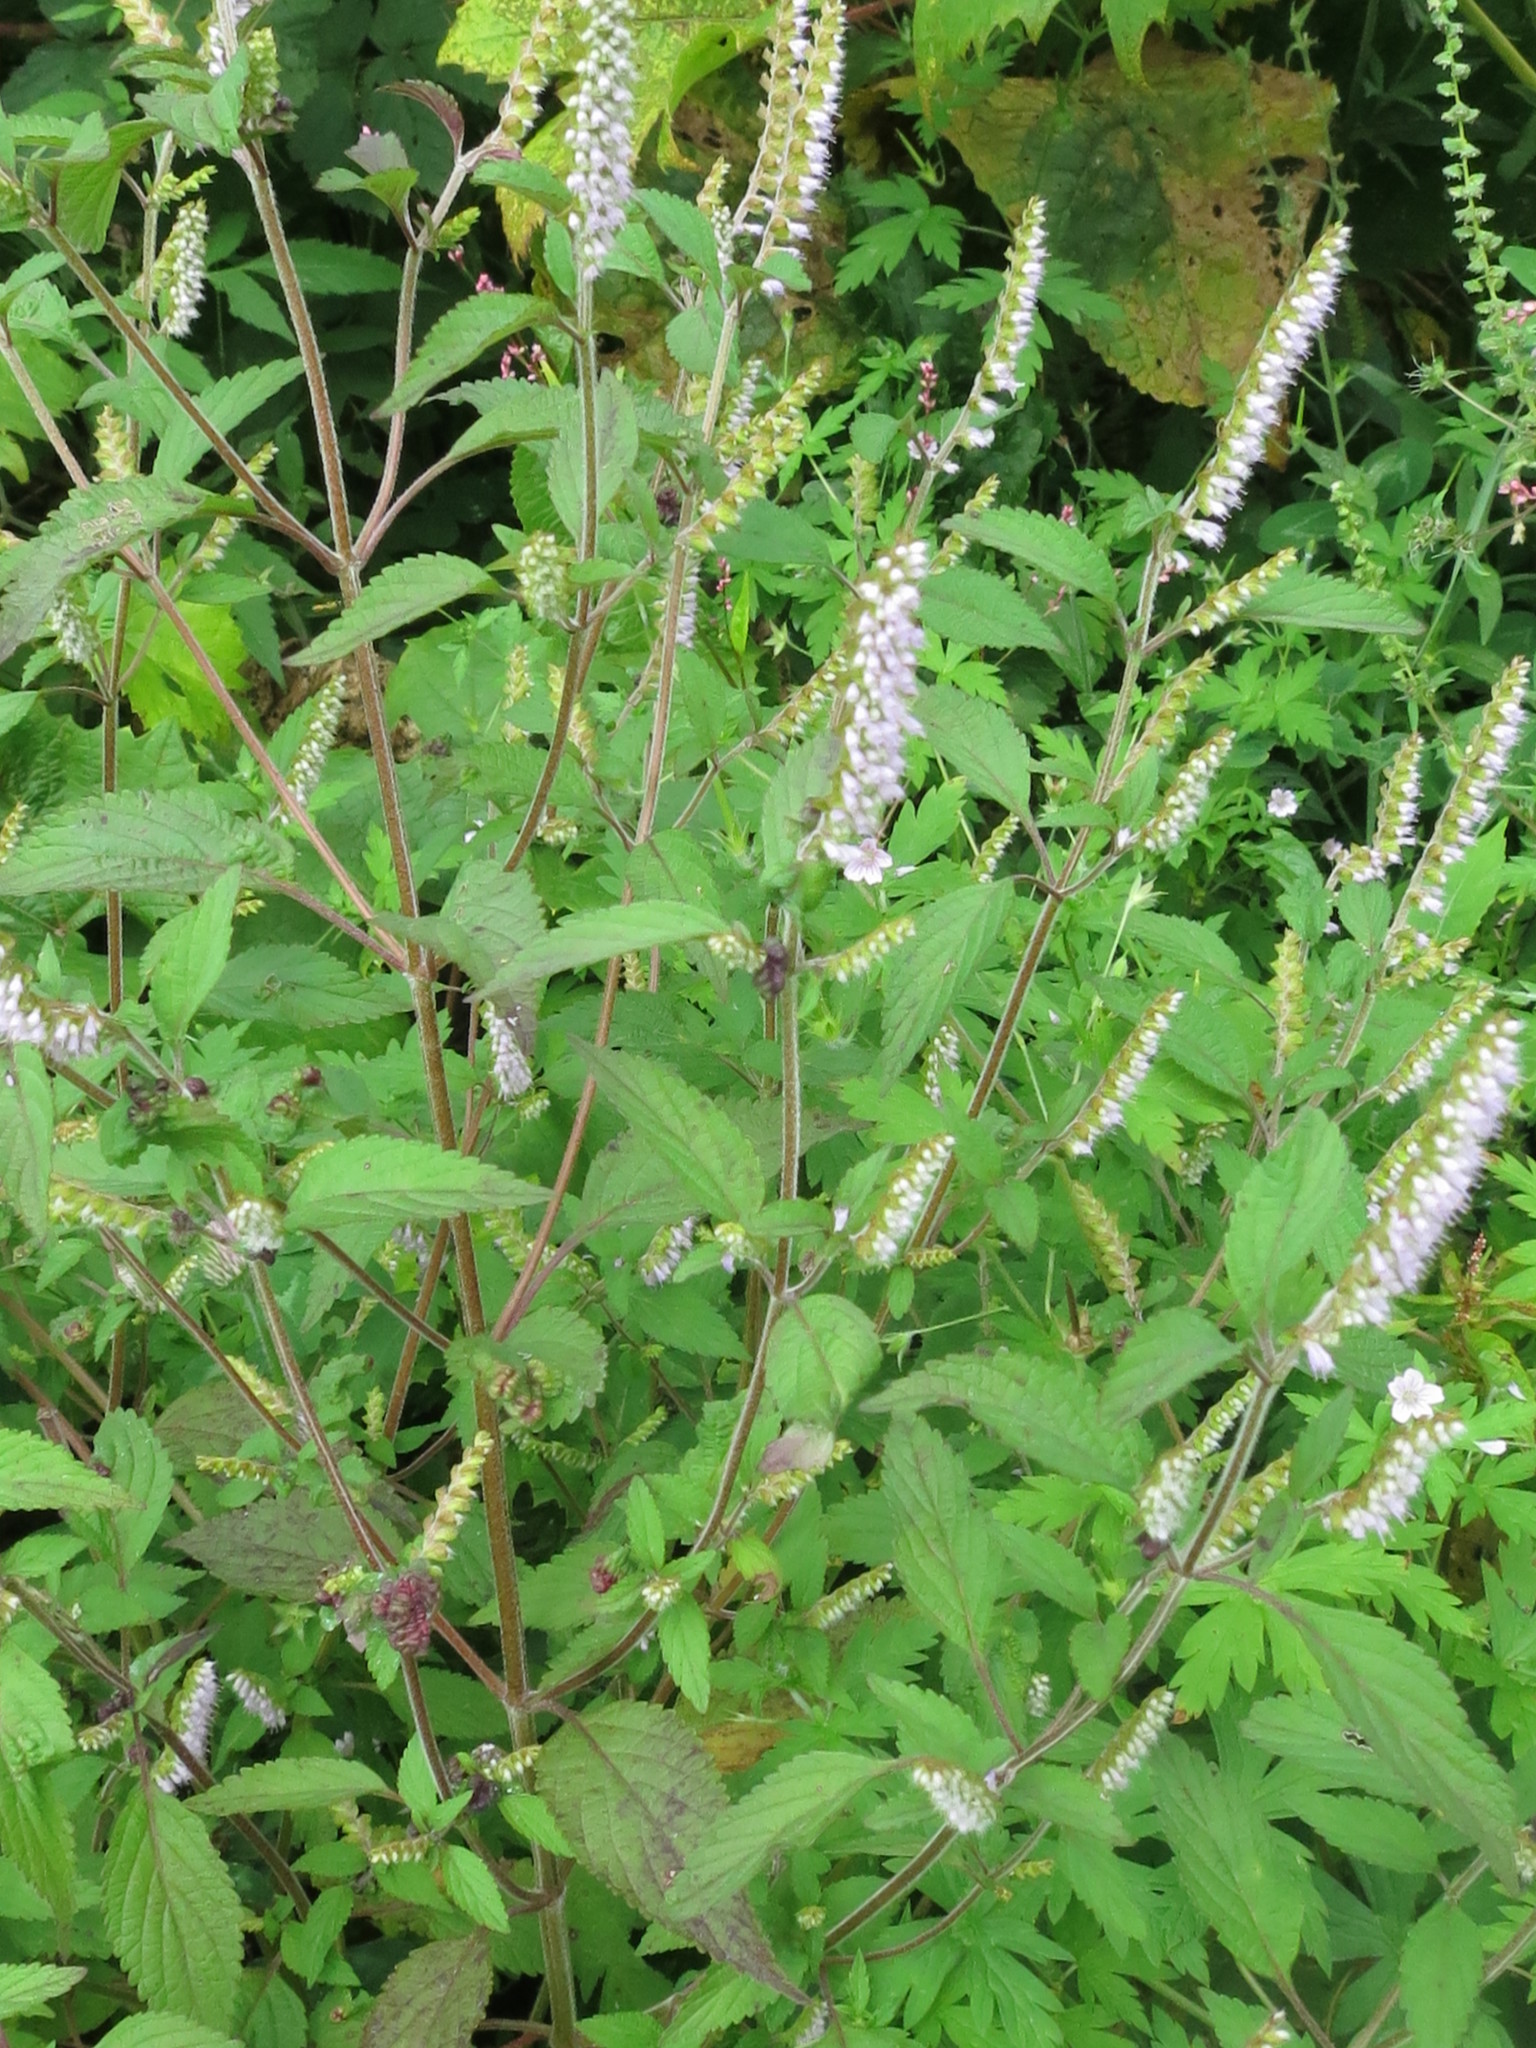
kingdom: Plantae
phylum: Tracheophyta
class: Magnoliopsida
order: Lamiales
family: Lamiaceae
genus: Elsholtzia
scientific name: Elsholtzia ciliata
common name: Ciliate elsholtzia
